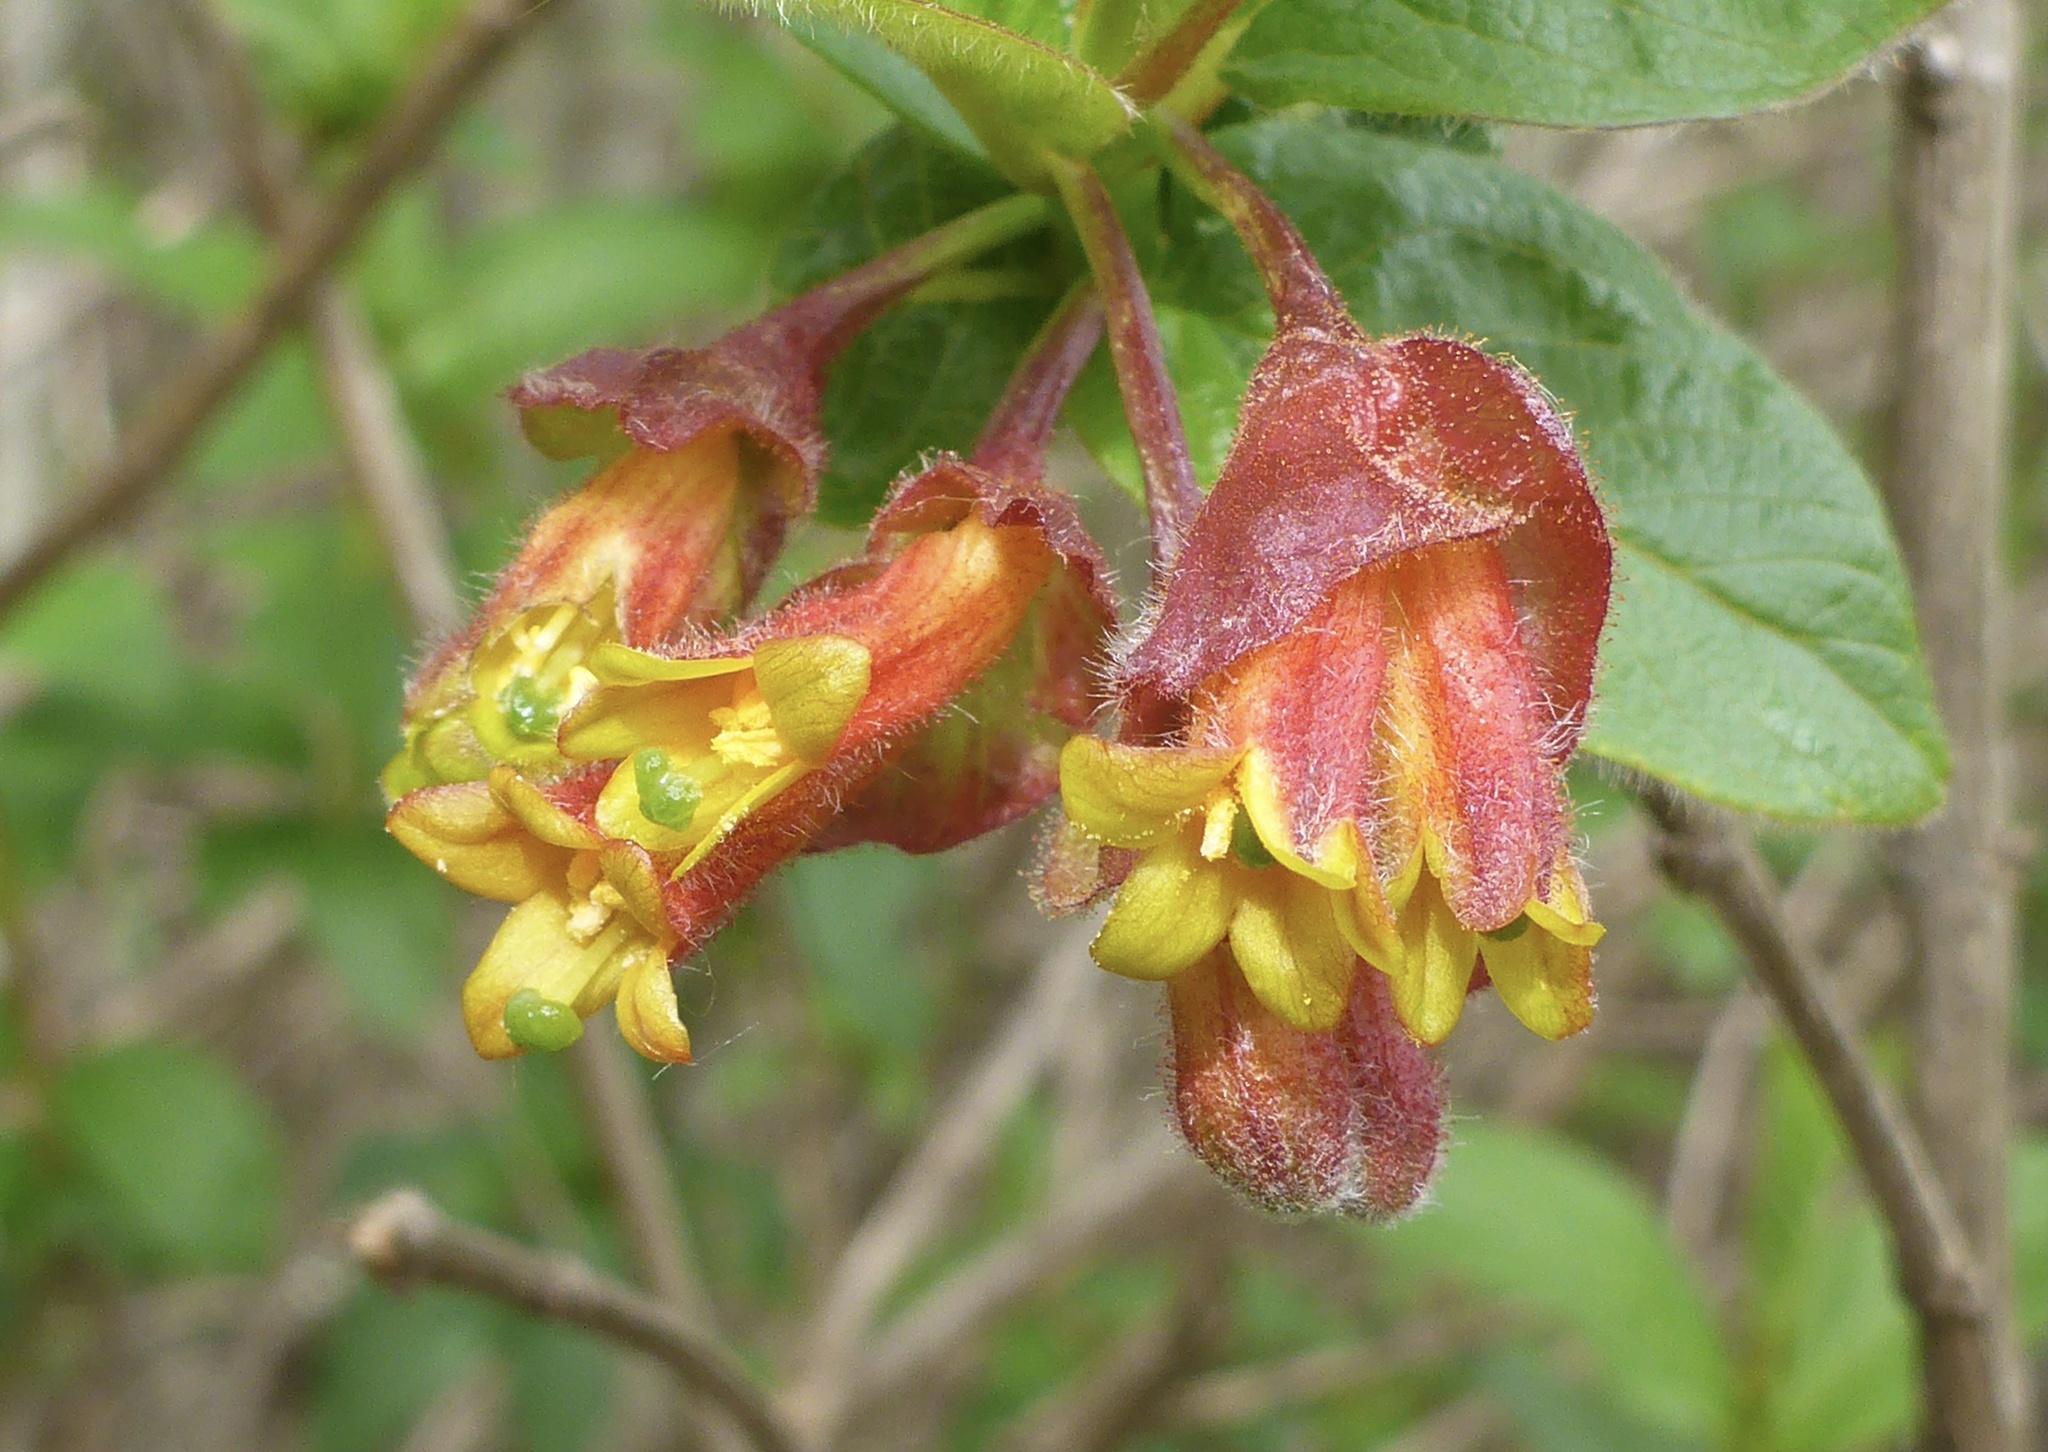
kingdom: Plantae
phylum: Tracheophyta
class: Magnoliopsida
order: Dipsacales
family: Caprifoliaceae
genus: Lonicera
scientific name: Lonicera involucrata
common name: Californian honeysuckle
